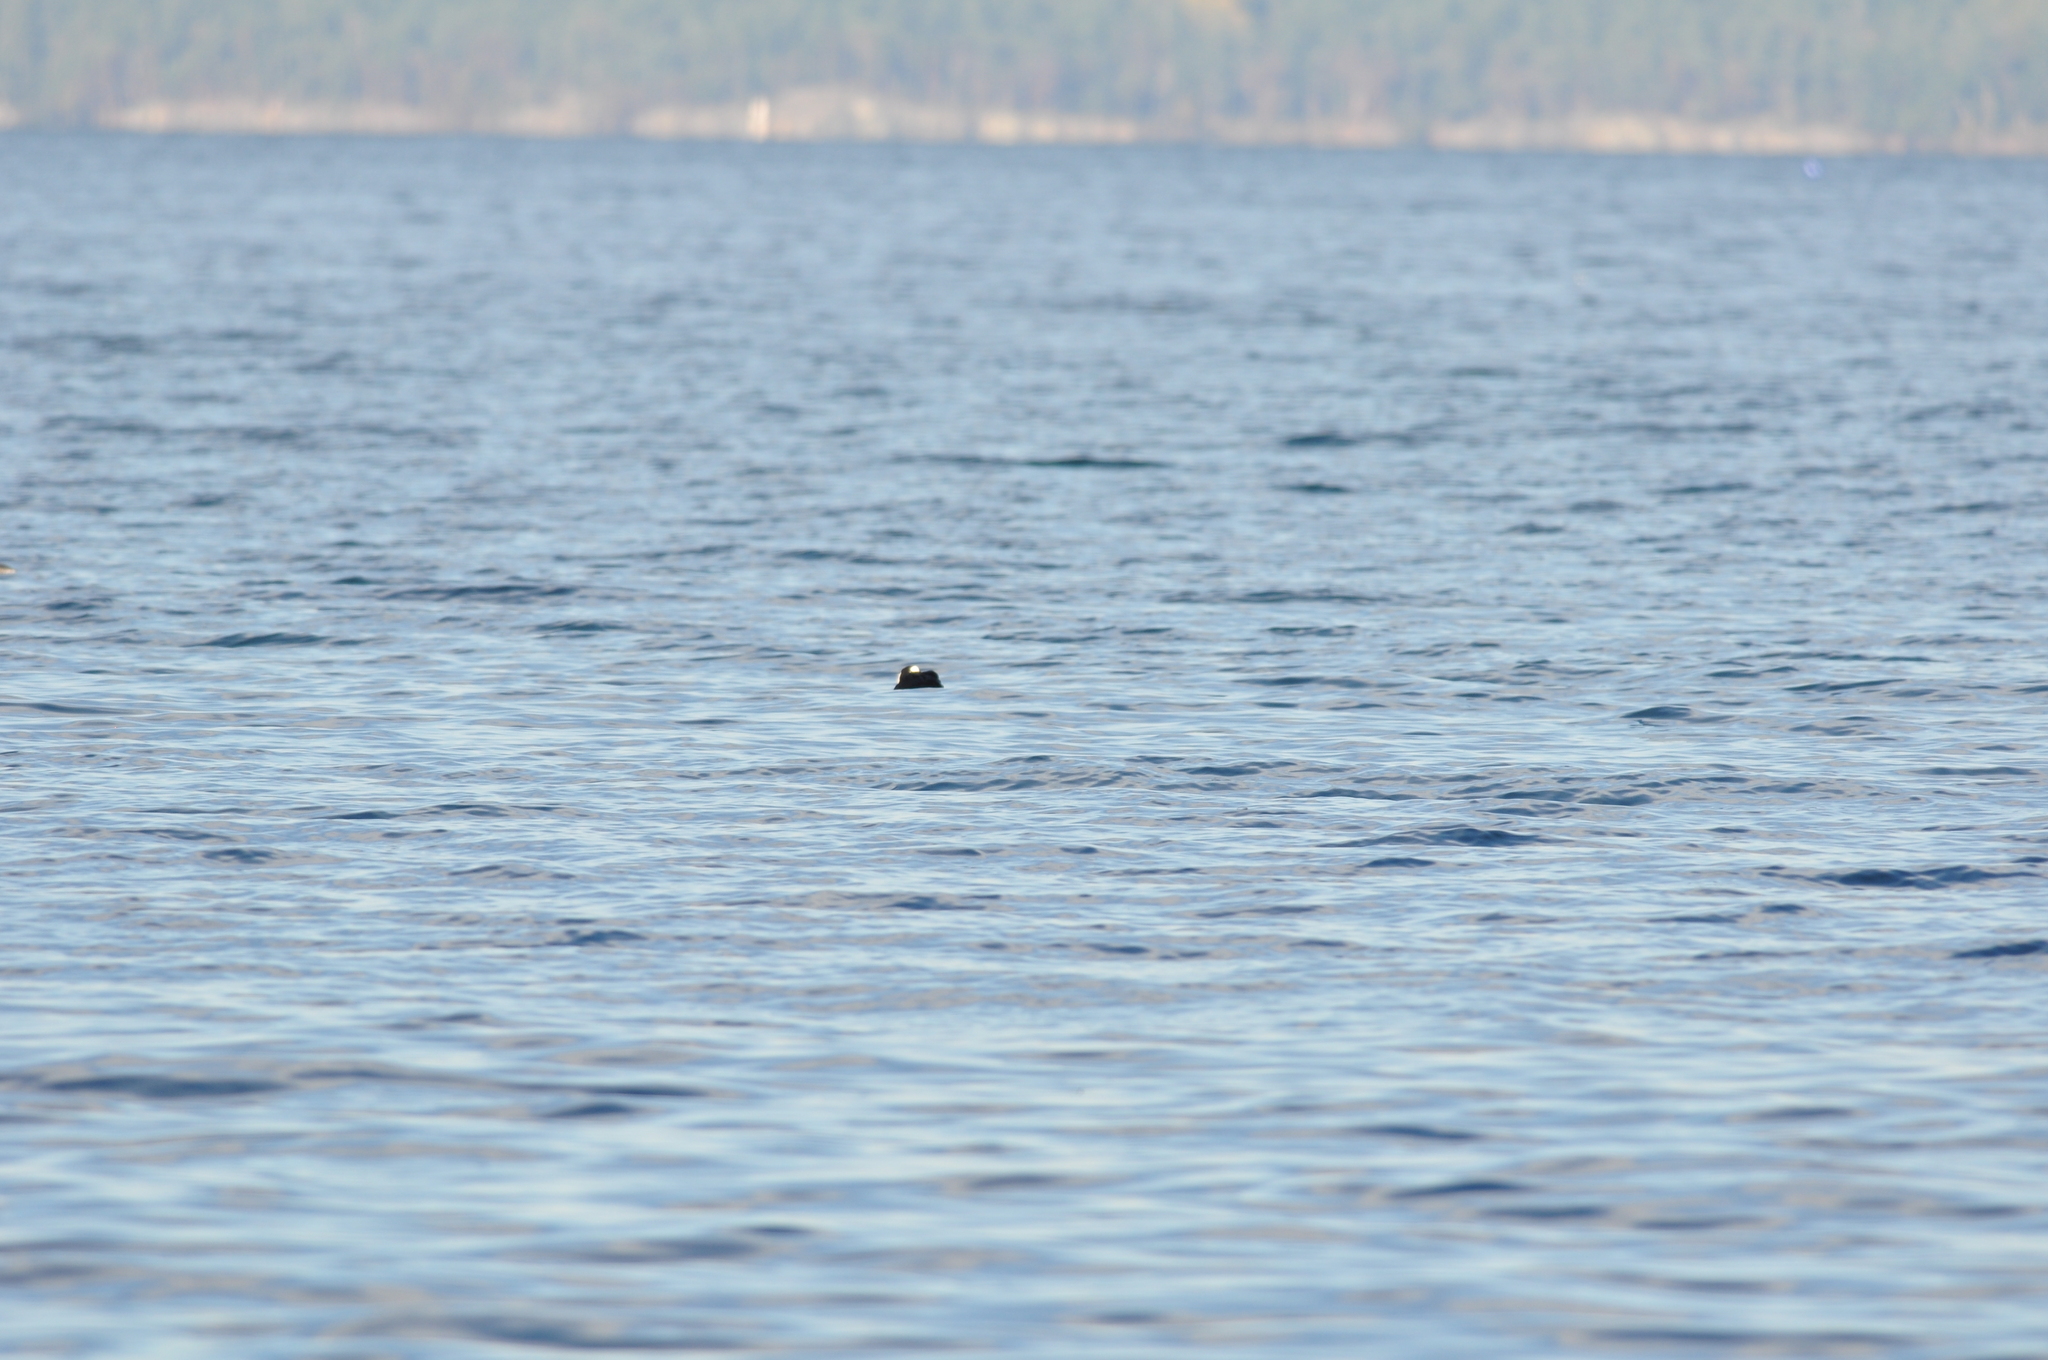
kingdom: Animalia
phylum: Chordata
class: Aves
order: Anseriformes
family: Anatidae
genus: Melanitta
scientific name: Melanitta perspicillata
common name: Surf scoter
